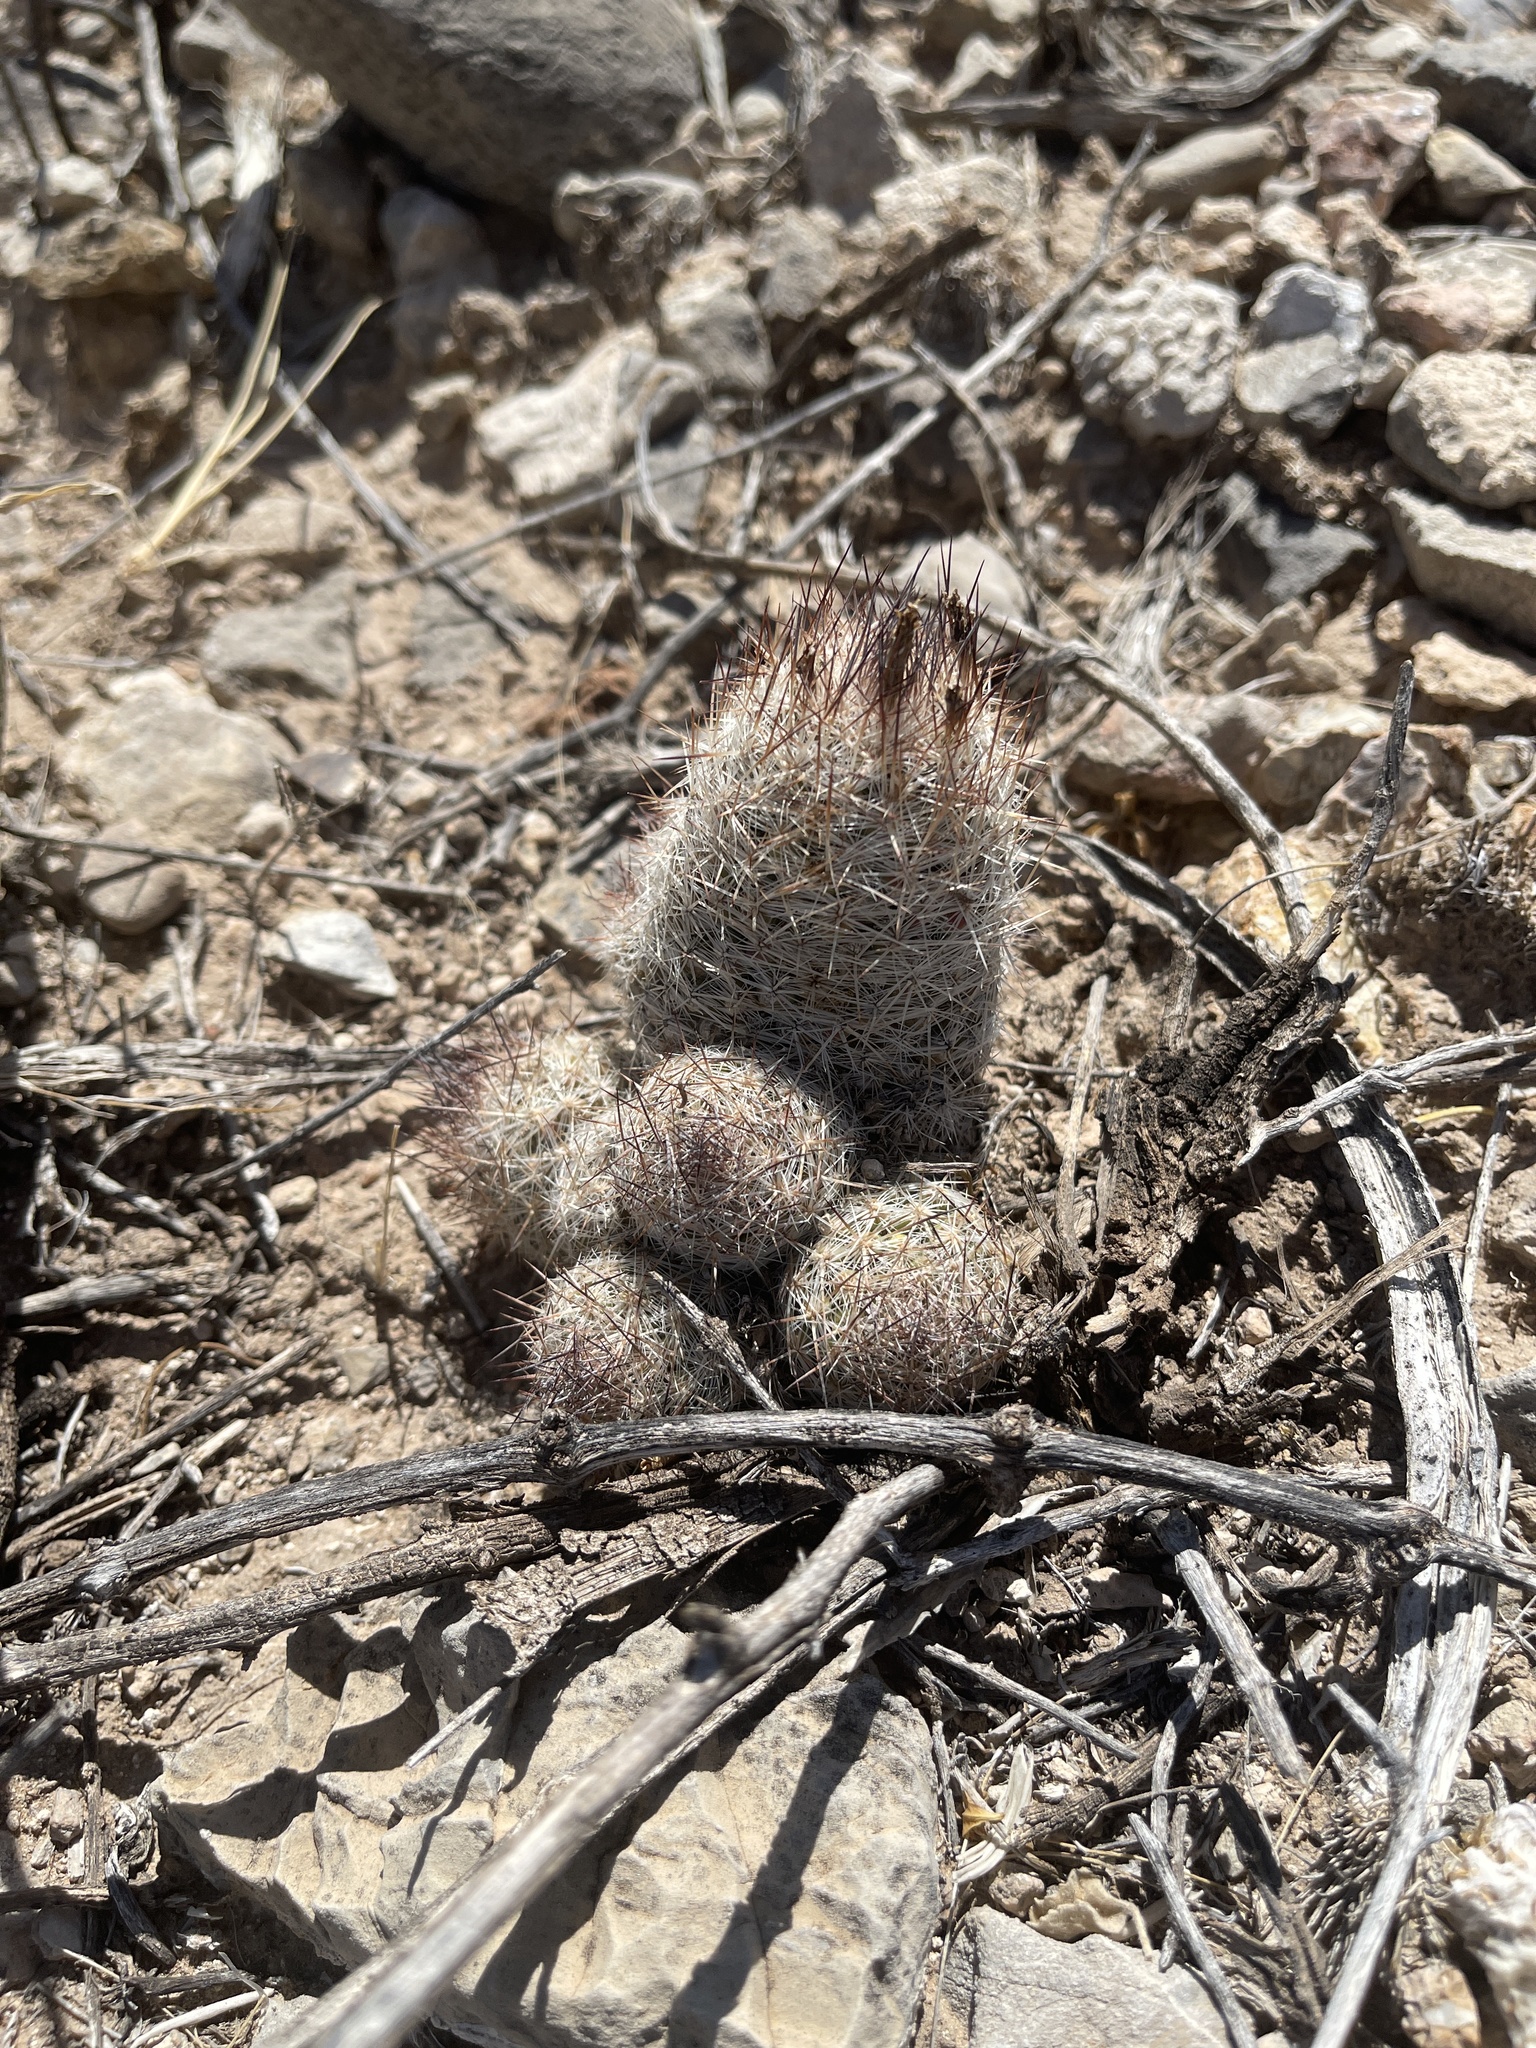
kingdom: Plantae
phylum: Tracheophyta
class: Magnoliopsida
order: Caryophyllales
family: Cactaceae
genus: Pelecyphora
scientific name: Pelecyphora tuberculosa
